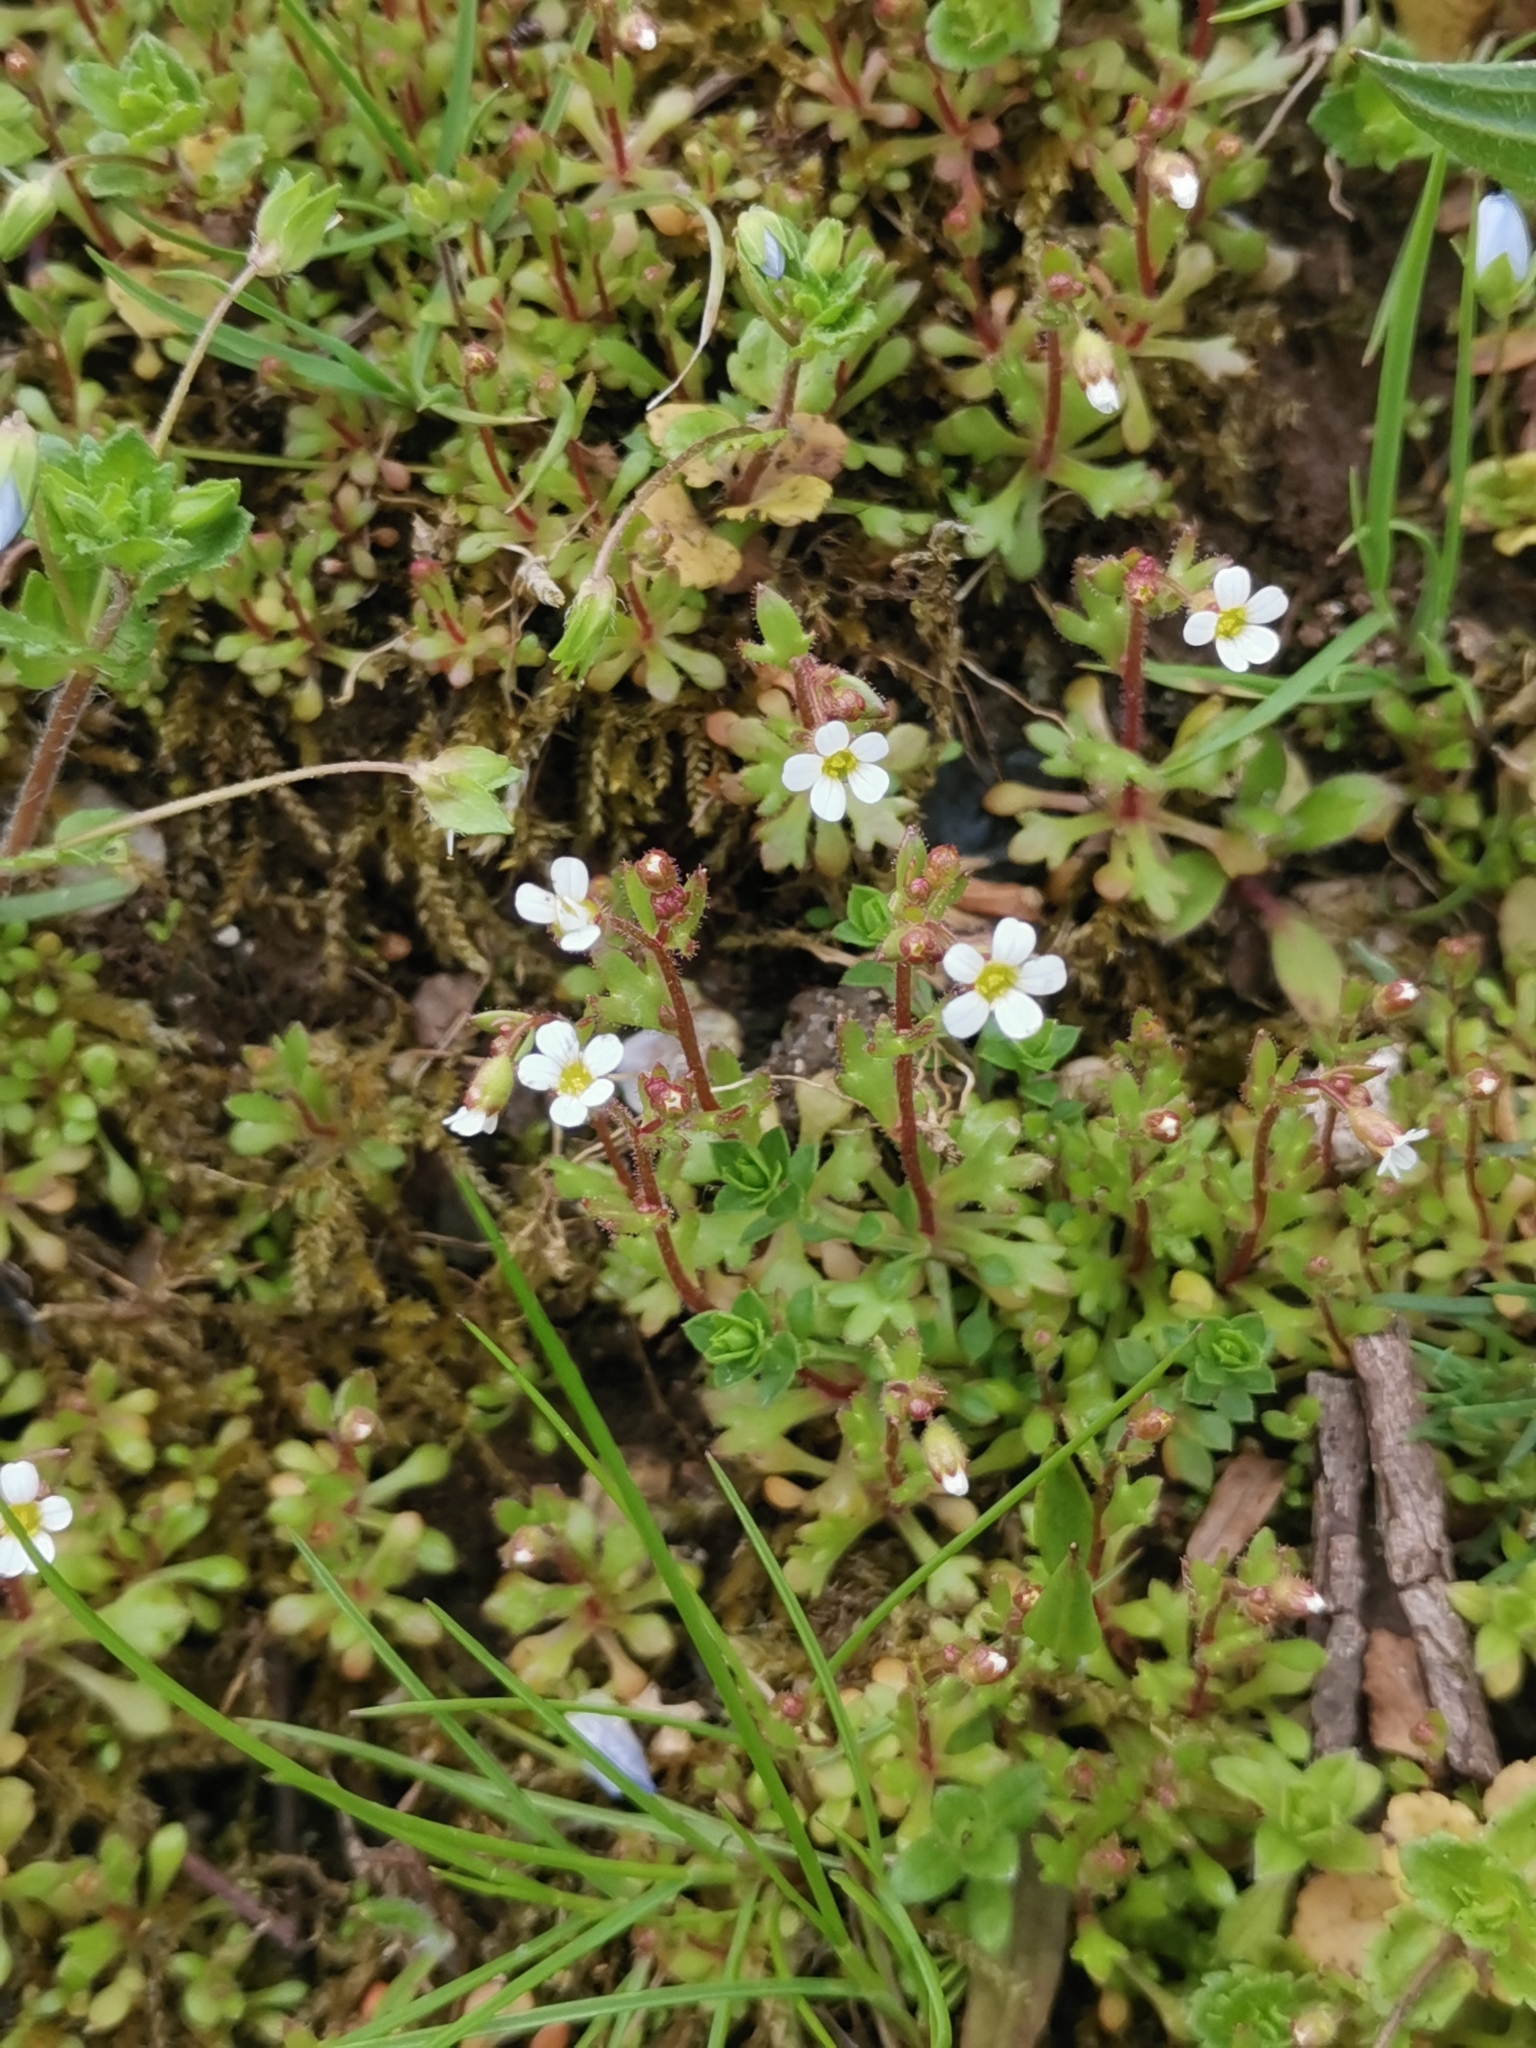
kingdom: Plantae
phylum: Tracheophyta
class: Magnoliopsida
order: Saxifragales
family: Saxifragaceae
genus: Saxifraga
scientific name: Saxifraga tridactylites
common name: Rue-leaved saxifrage
